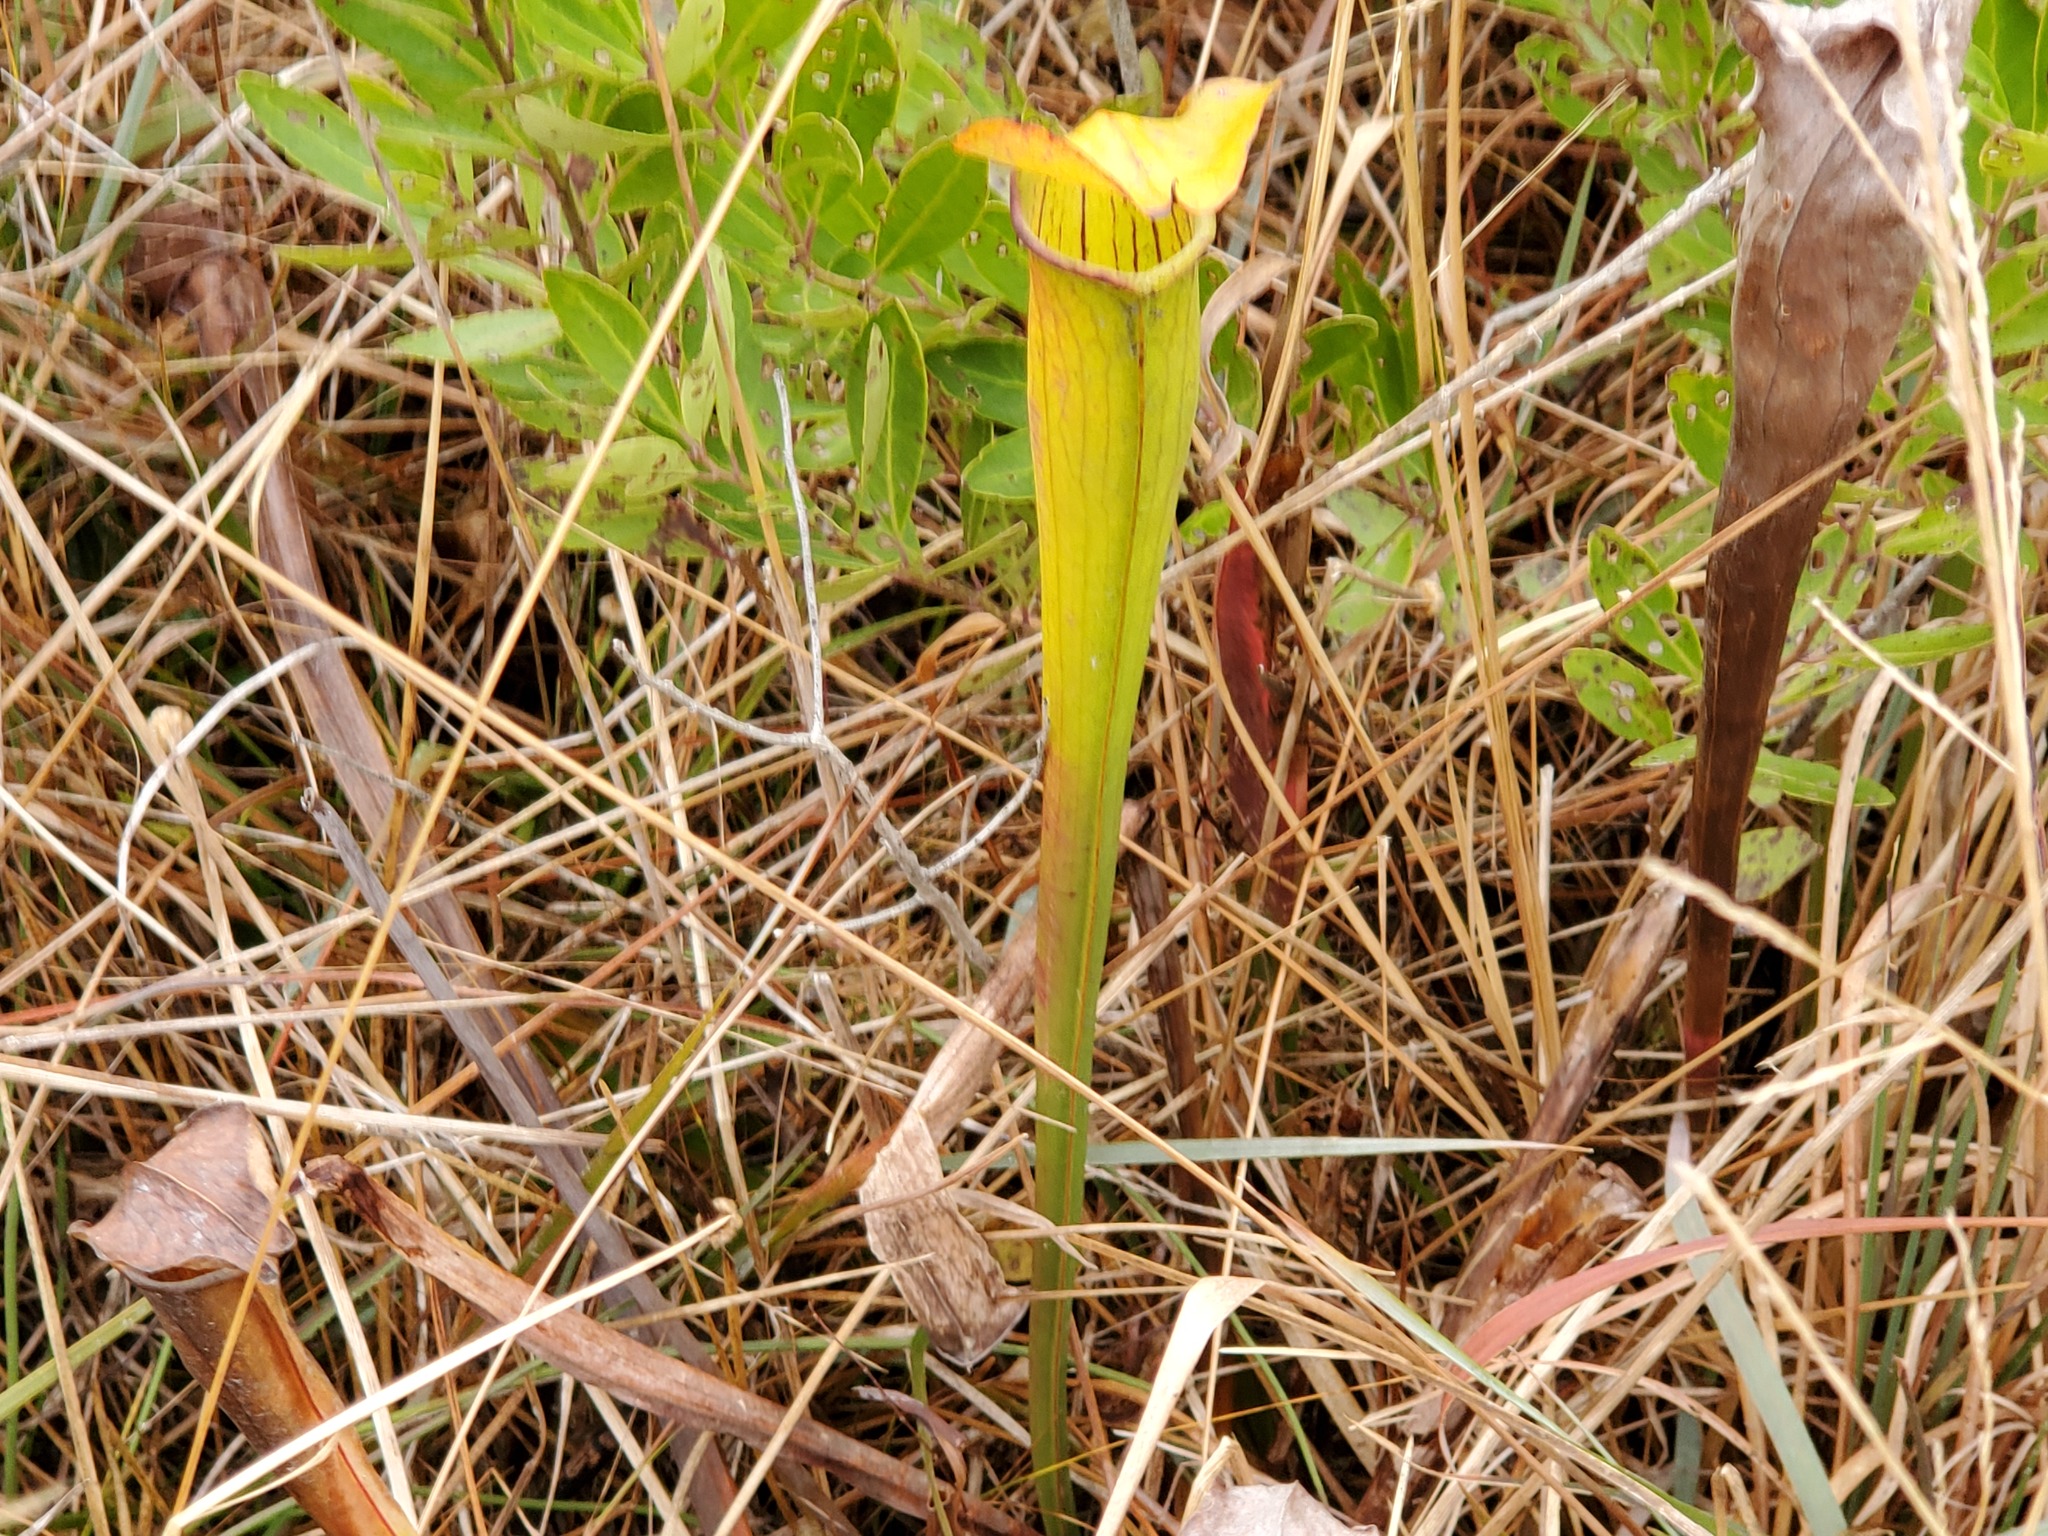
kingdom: Plantae
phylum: Tracheophyta
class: Magnoliopsida
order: Ericales
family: Sarraceniaceae
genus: Sarracenia
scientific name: Sarracenia alata
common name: Yellow trumpets
